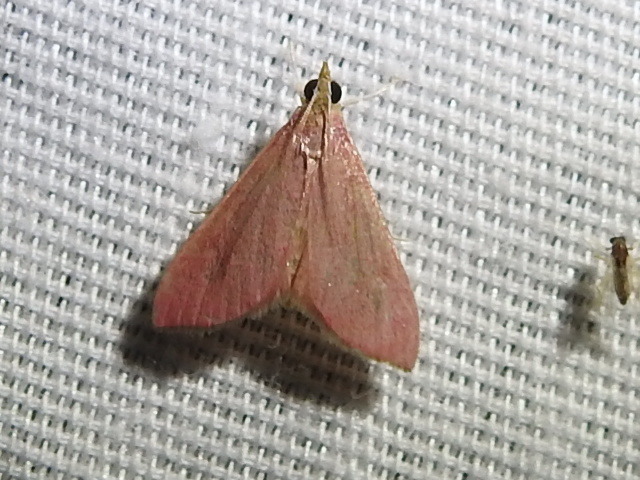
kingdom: Animalia
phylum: Arthropoda
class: Insecta
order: Lepidoptera
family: Crambidae
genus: Pyrausta
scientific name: Pyrausta inornatalis
